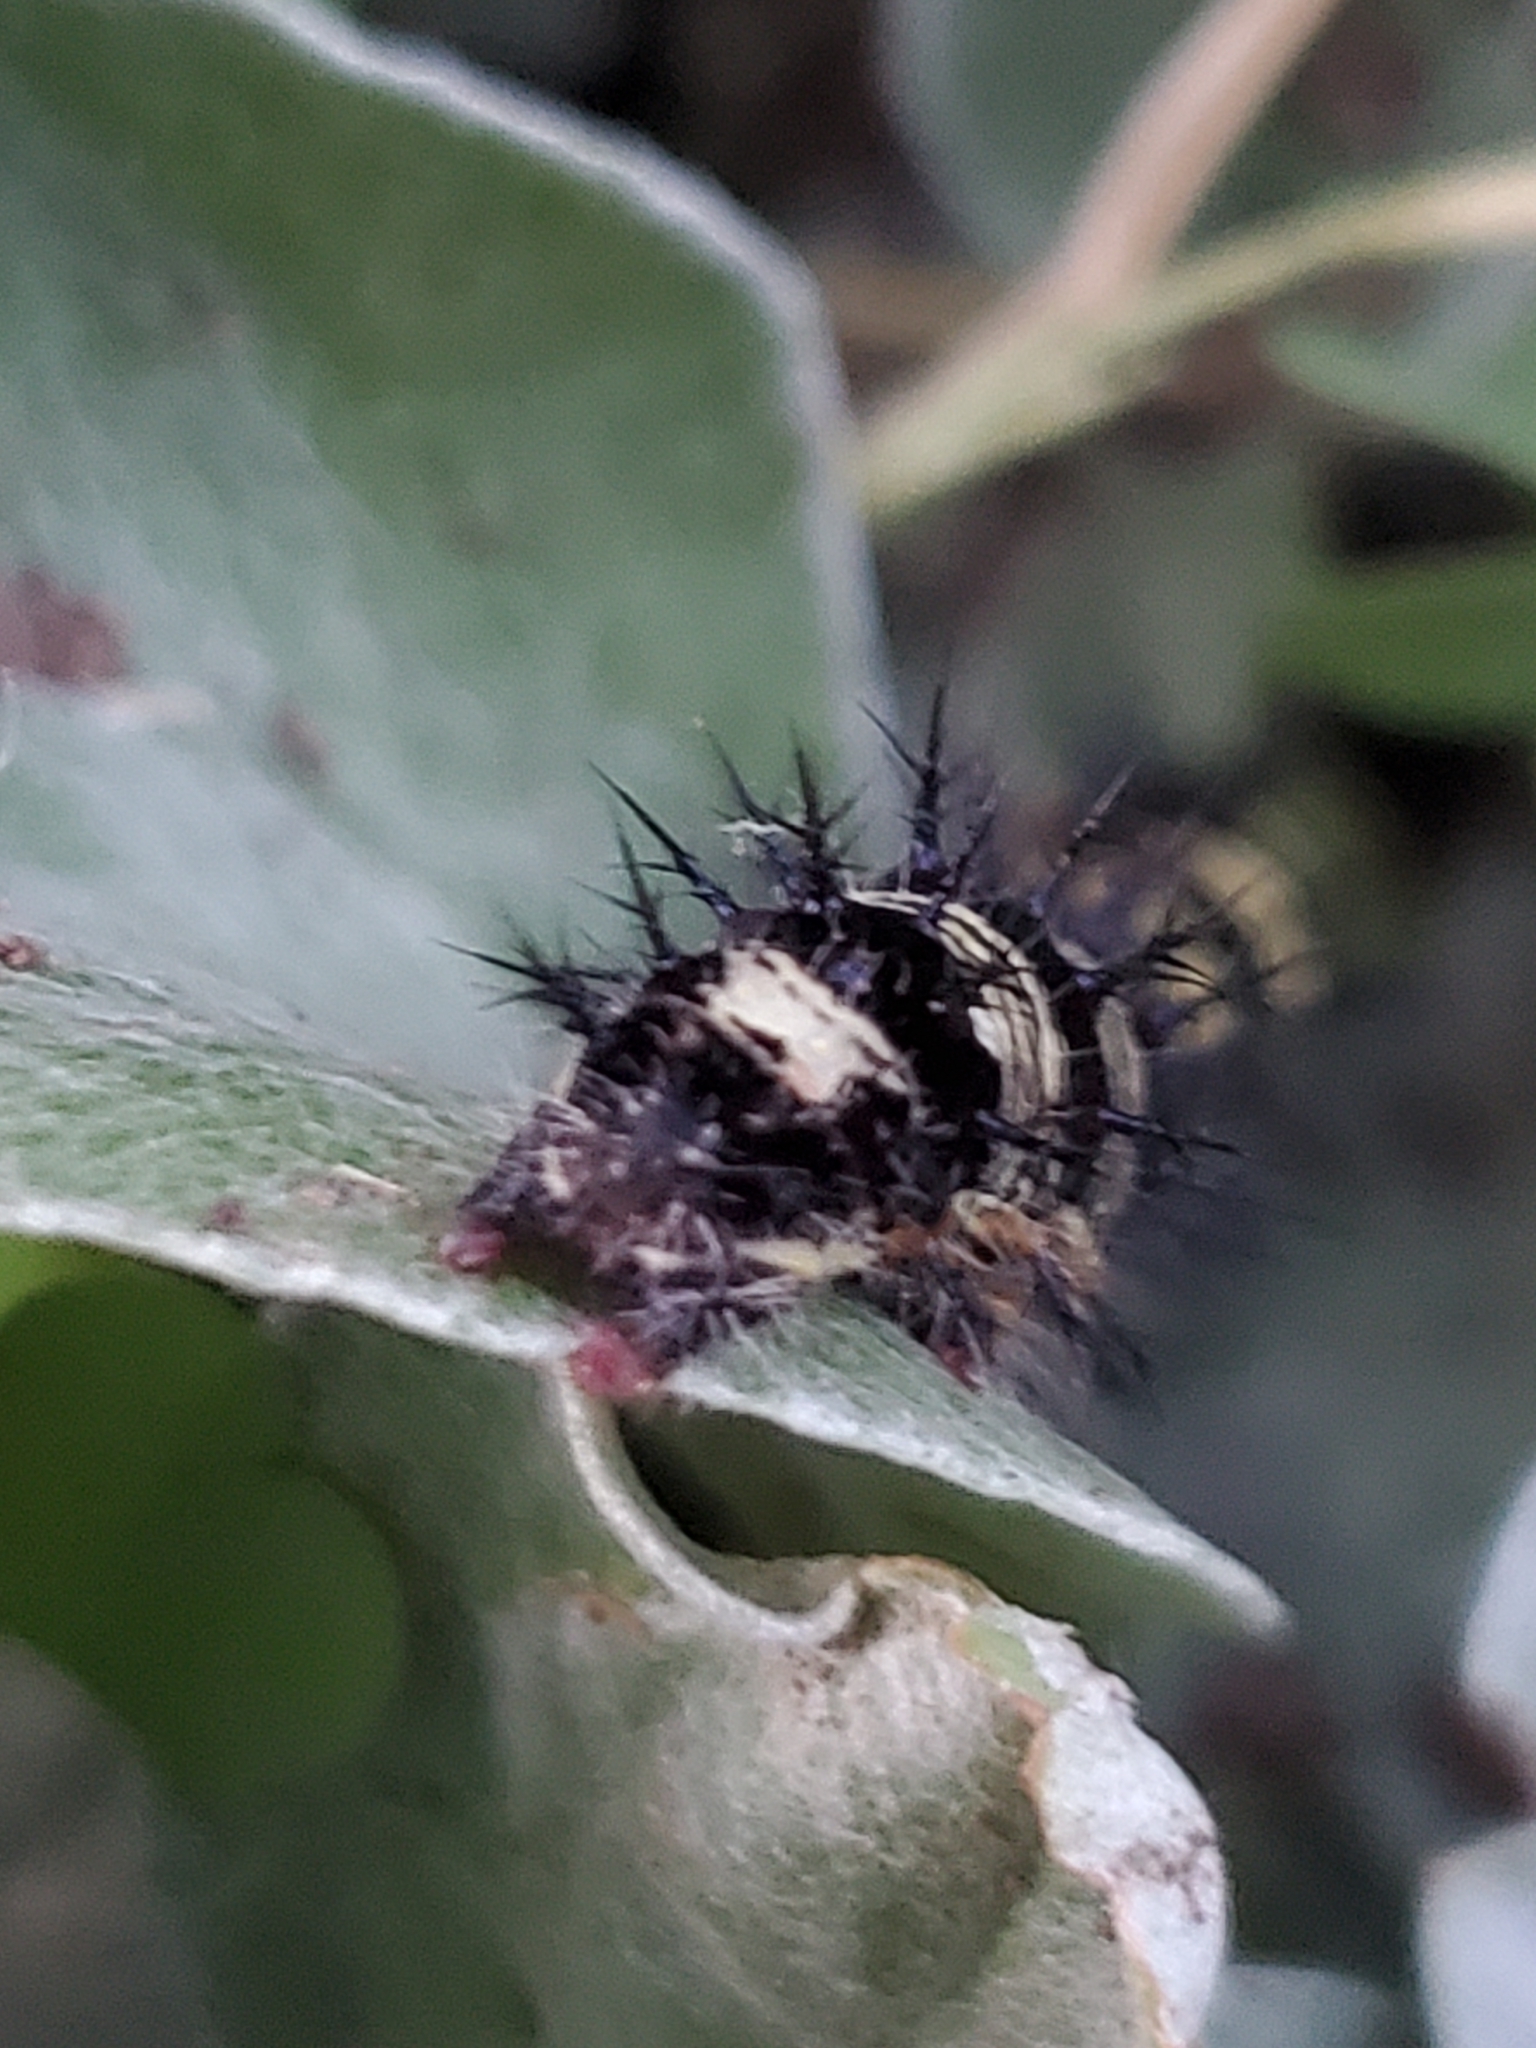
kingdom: Animalia
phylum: Arthropoda
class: Insecta
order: Lepidoptera
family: Nymphalidae
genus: Vanessa
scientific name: Vanessa virginiensis
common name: American lady
